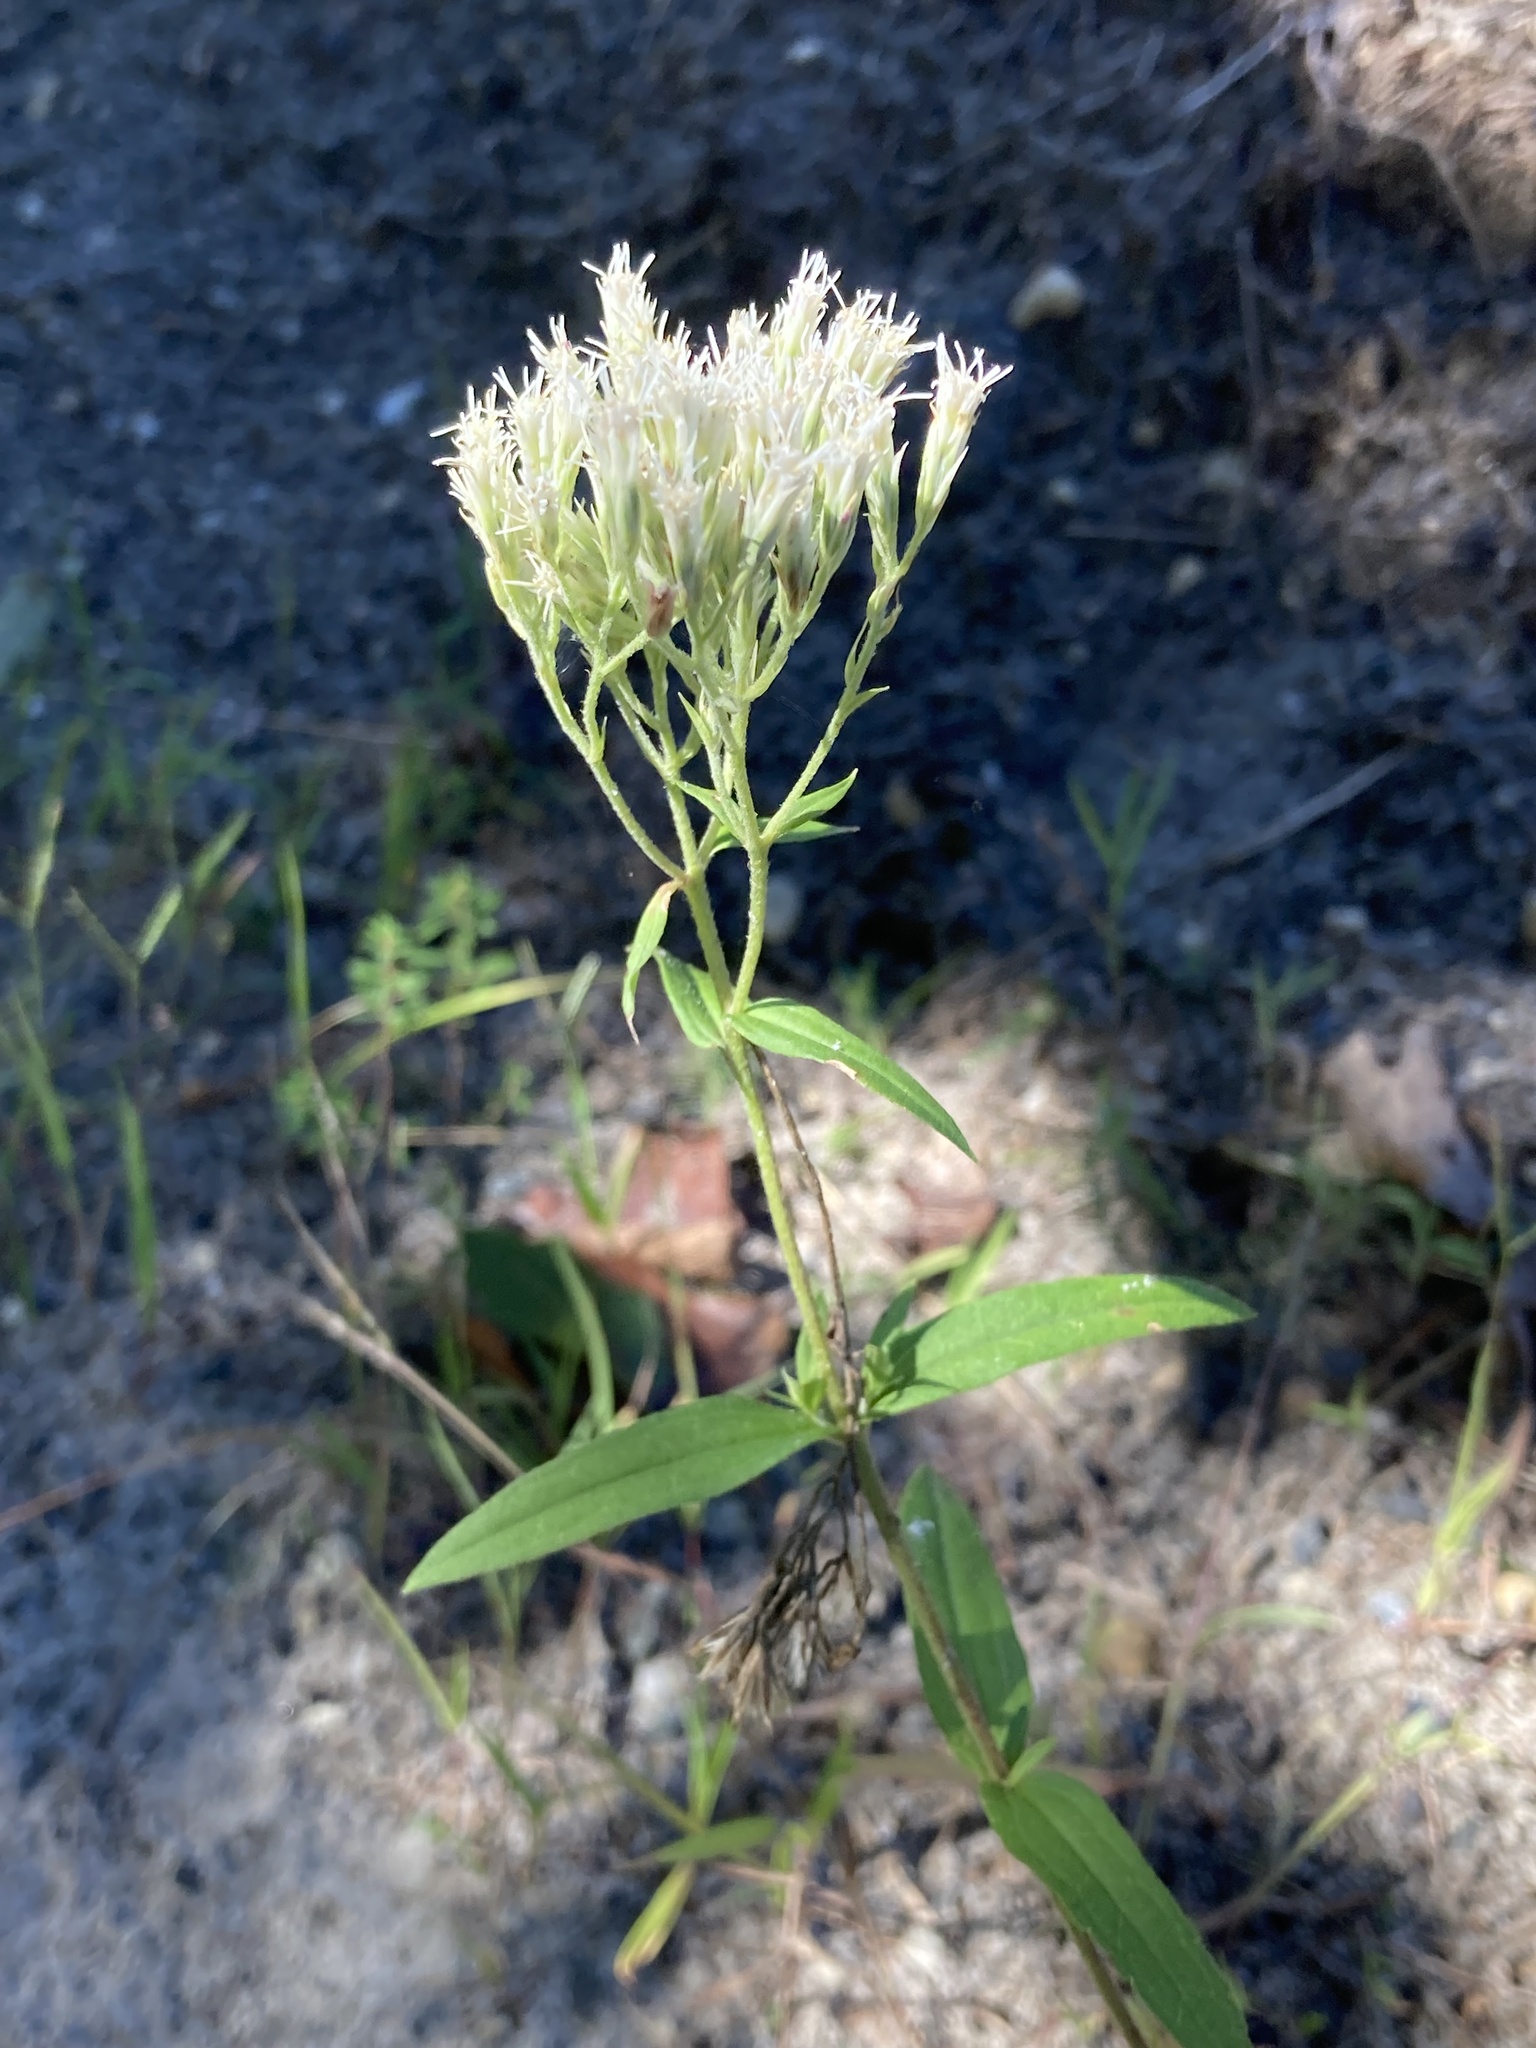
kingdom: Plantae
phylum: Tracheophyta
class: Magnoliopsida
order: Asterales
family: Asteraceae
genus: Eupatorium
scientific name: Eupatorium subvenosum
